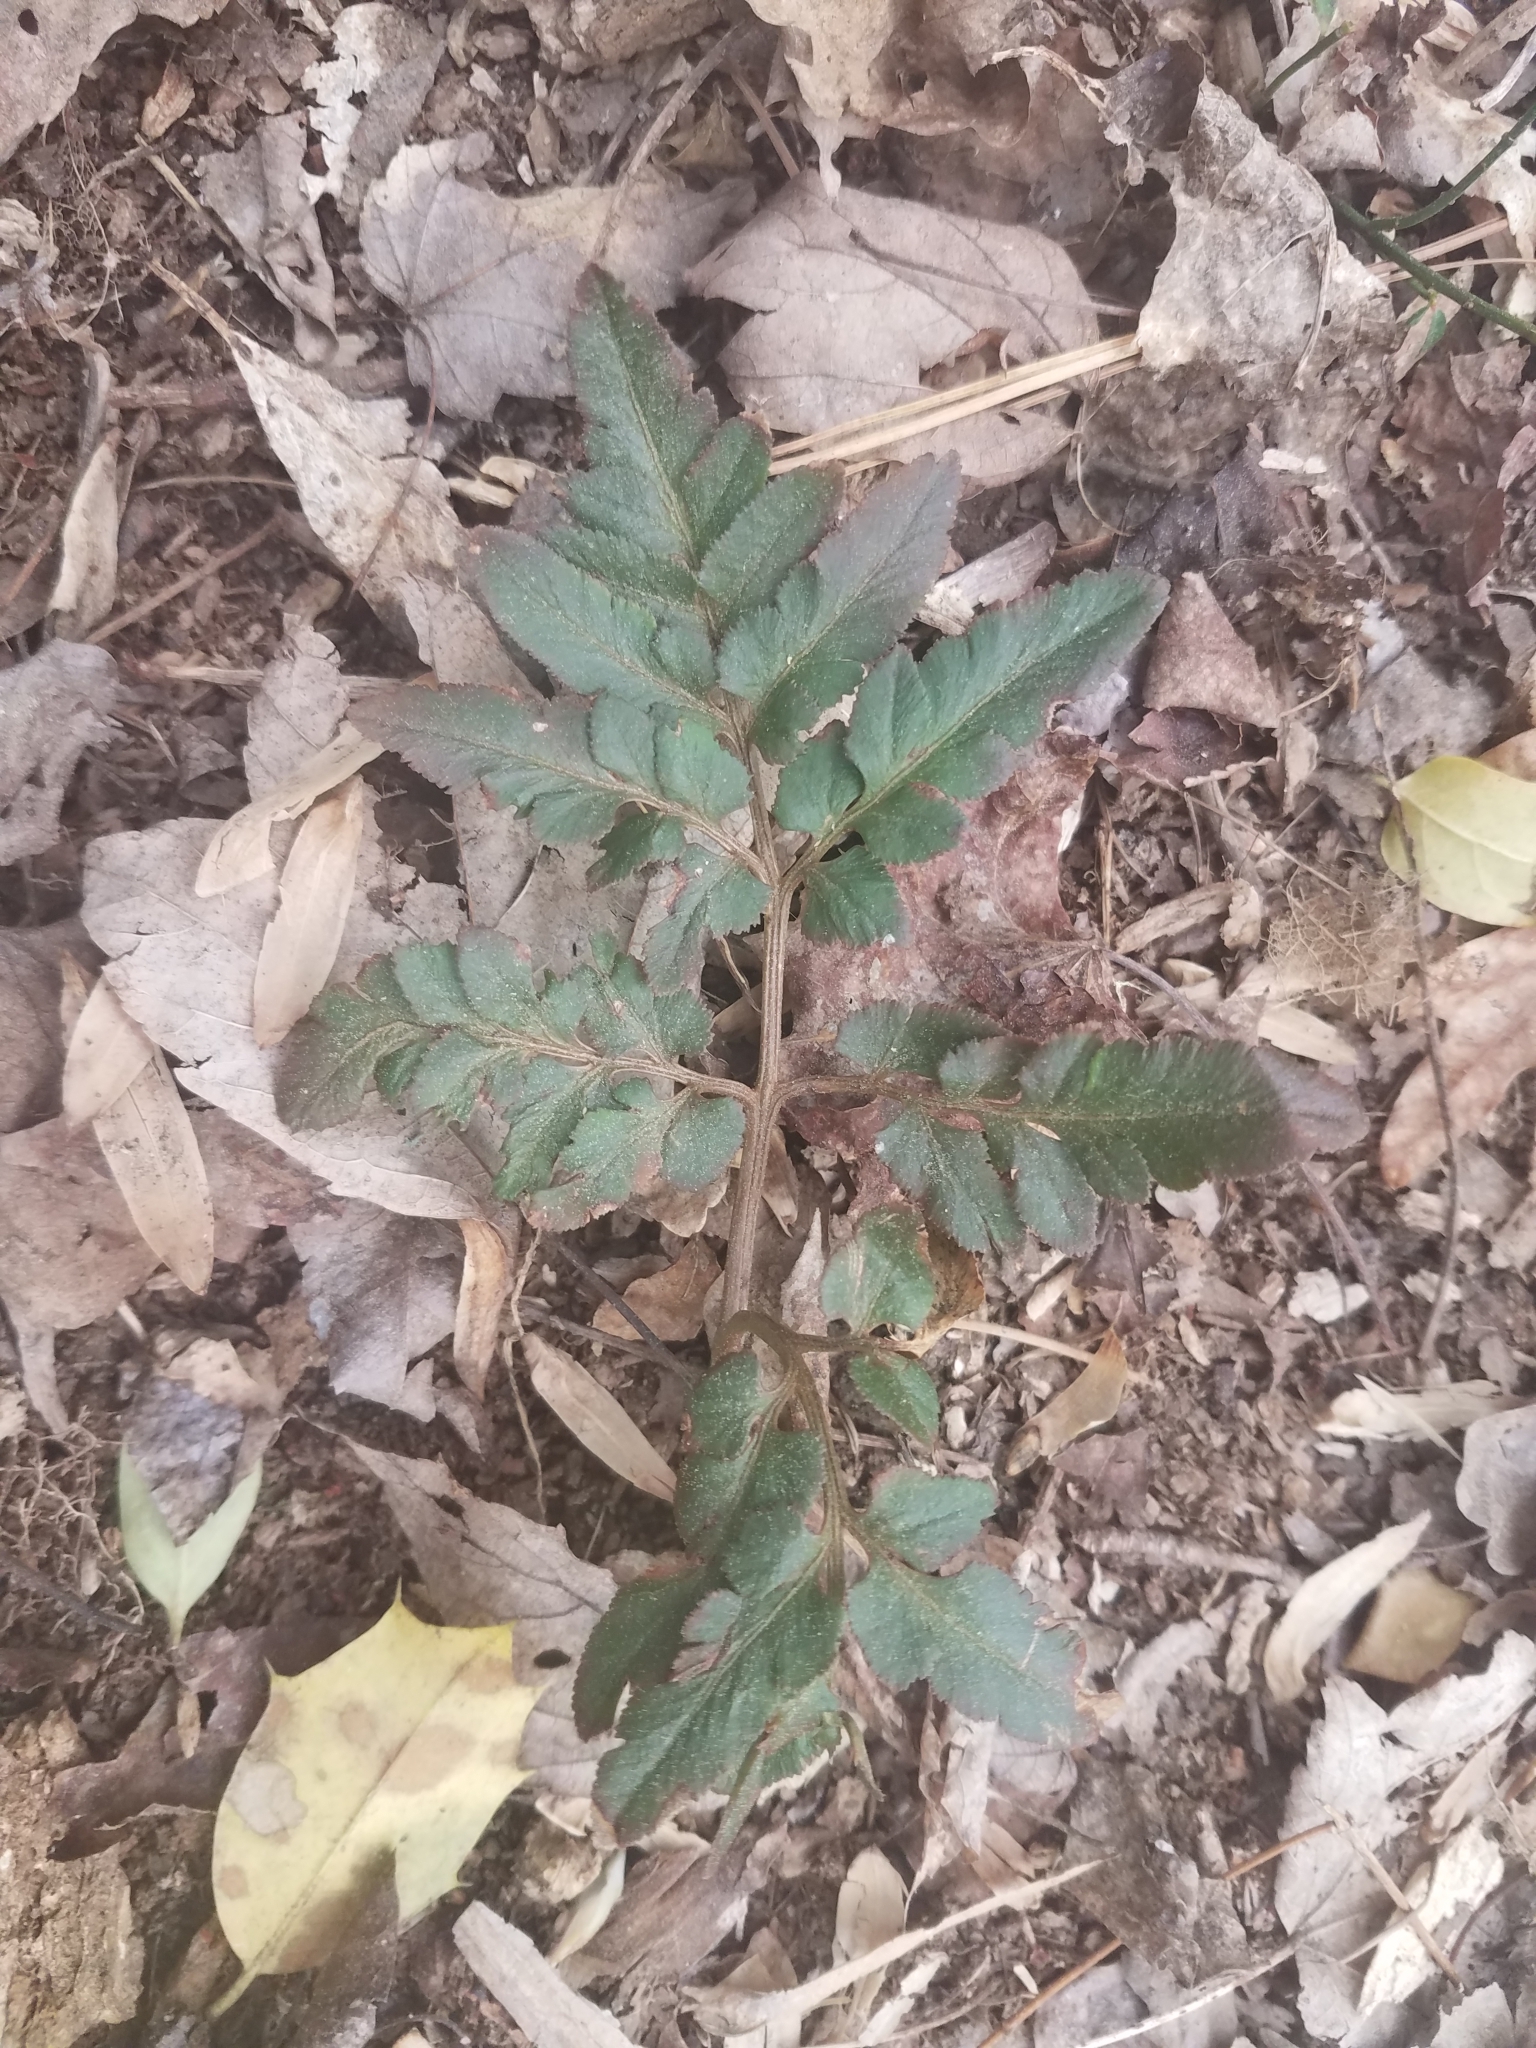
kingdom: Plantae
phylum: Tracheophyta
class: Polypodiopsida
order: Ophioglossales
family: Ophioglossaceae
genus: Sceptridium
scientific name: Sceptridium dissectum
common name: Cut-leaved grapefern
